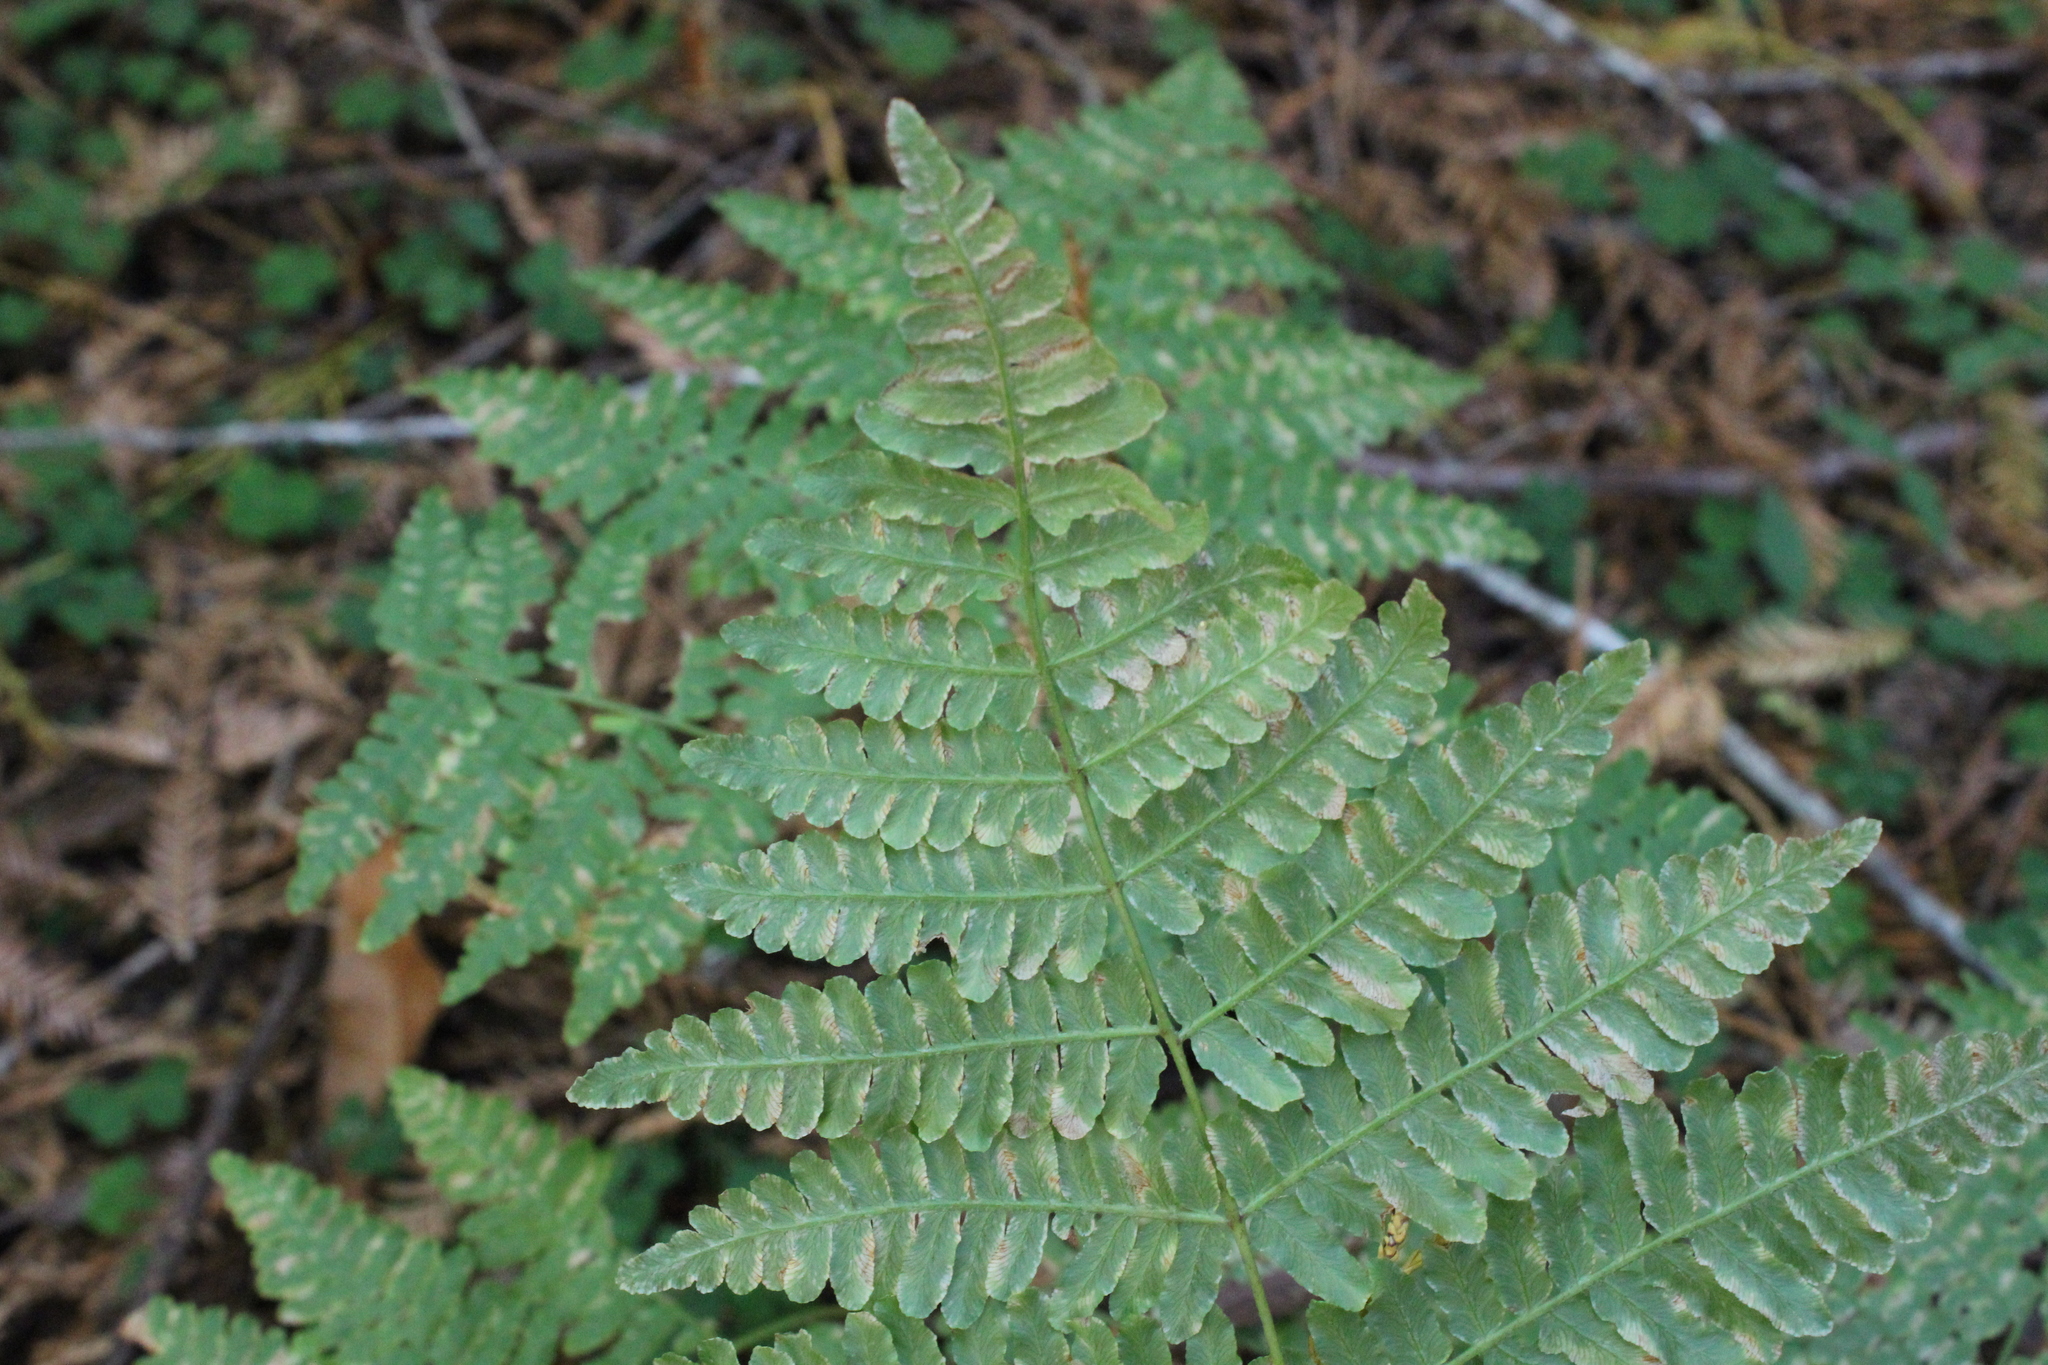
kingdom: Plantae
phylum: Tracheophyta
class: Polypodiopsida
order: Polypodiales
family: Dennstaedtiaceae
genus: Pteridium
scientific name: Pteridium aquilinum
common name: Bracken
